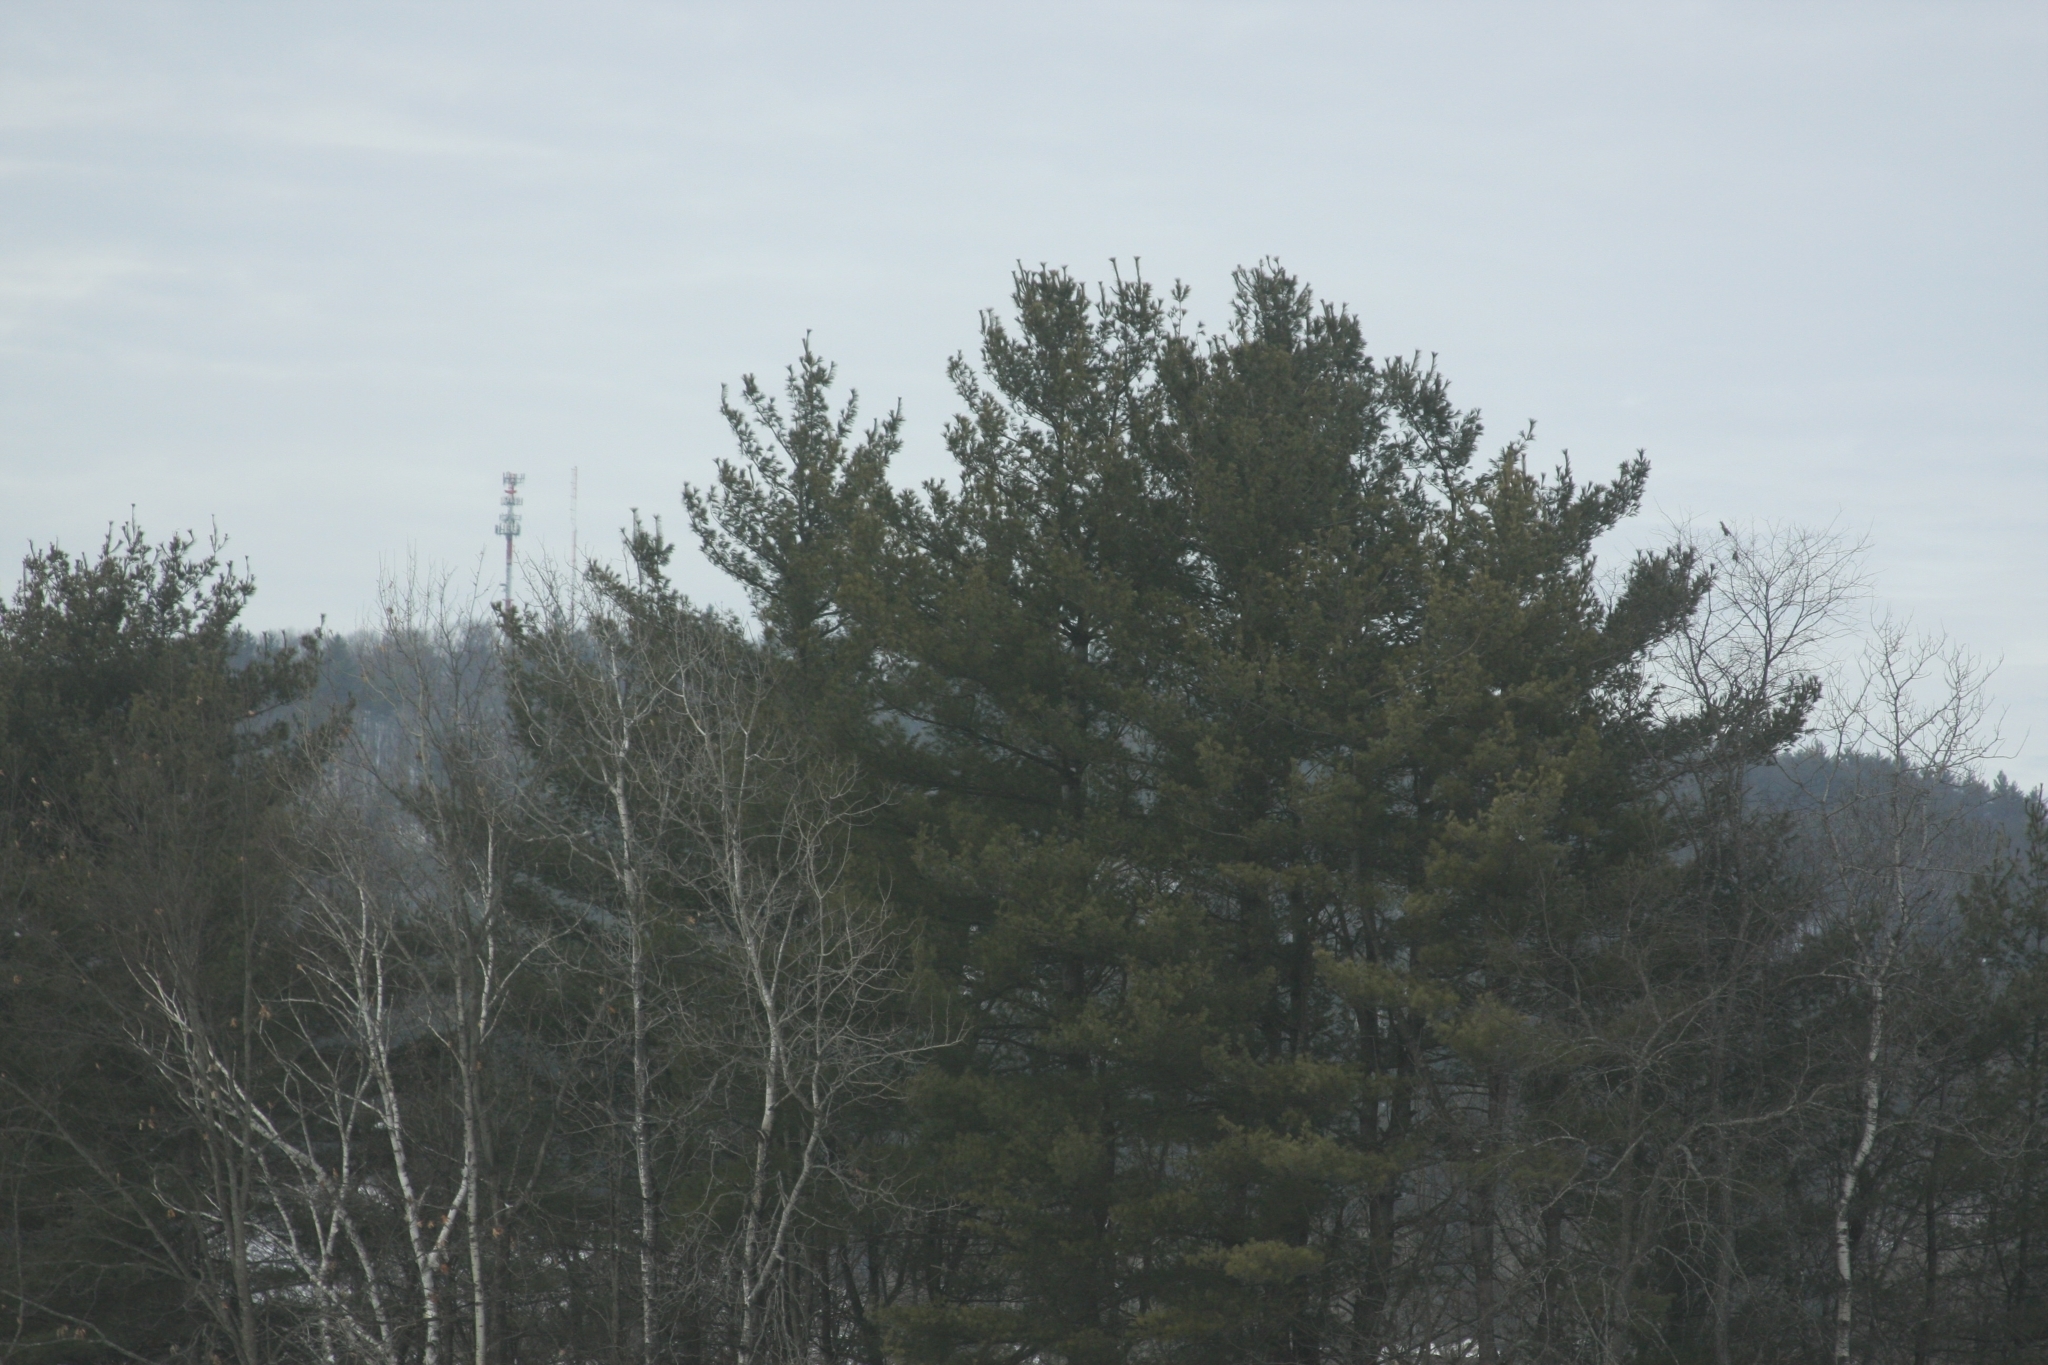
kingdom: Plantae
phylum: Tracheophyta
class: Pinopsida
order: Pinales
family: Pinaceae
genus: Pinus
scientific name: Pinus strobus
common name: Weymouth pine
